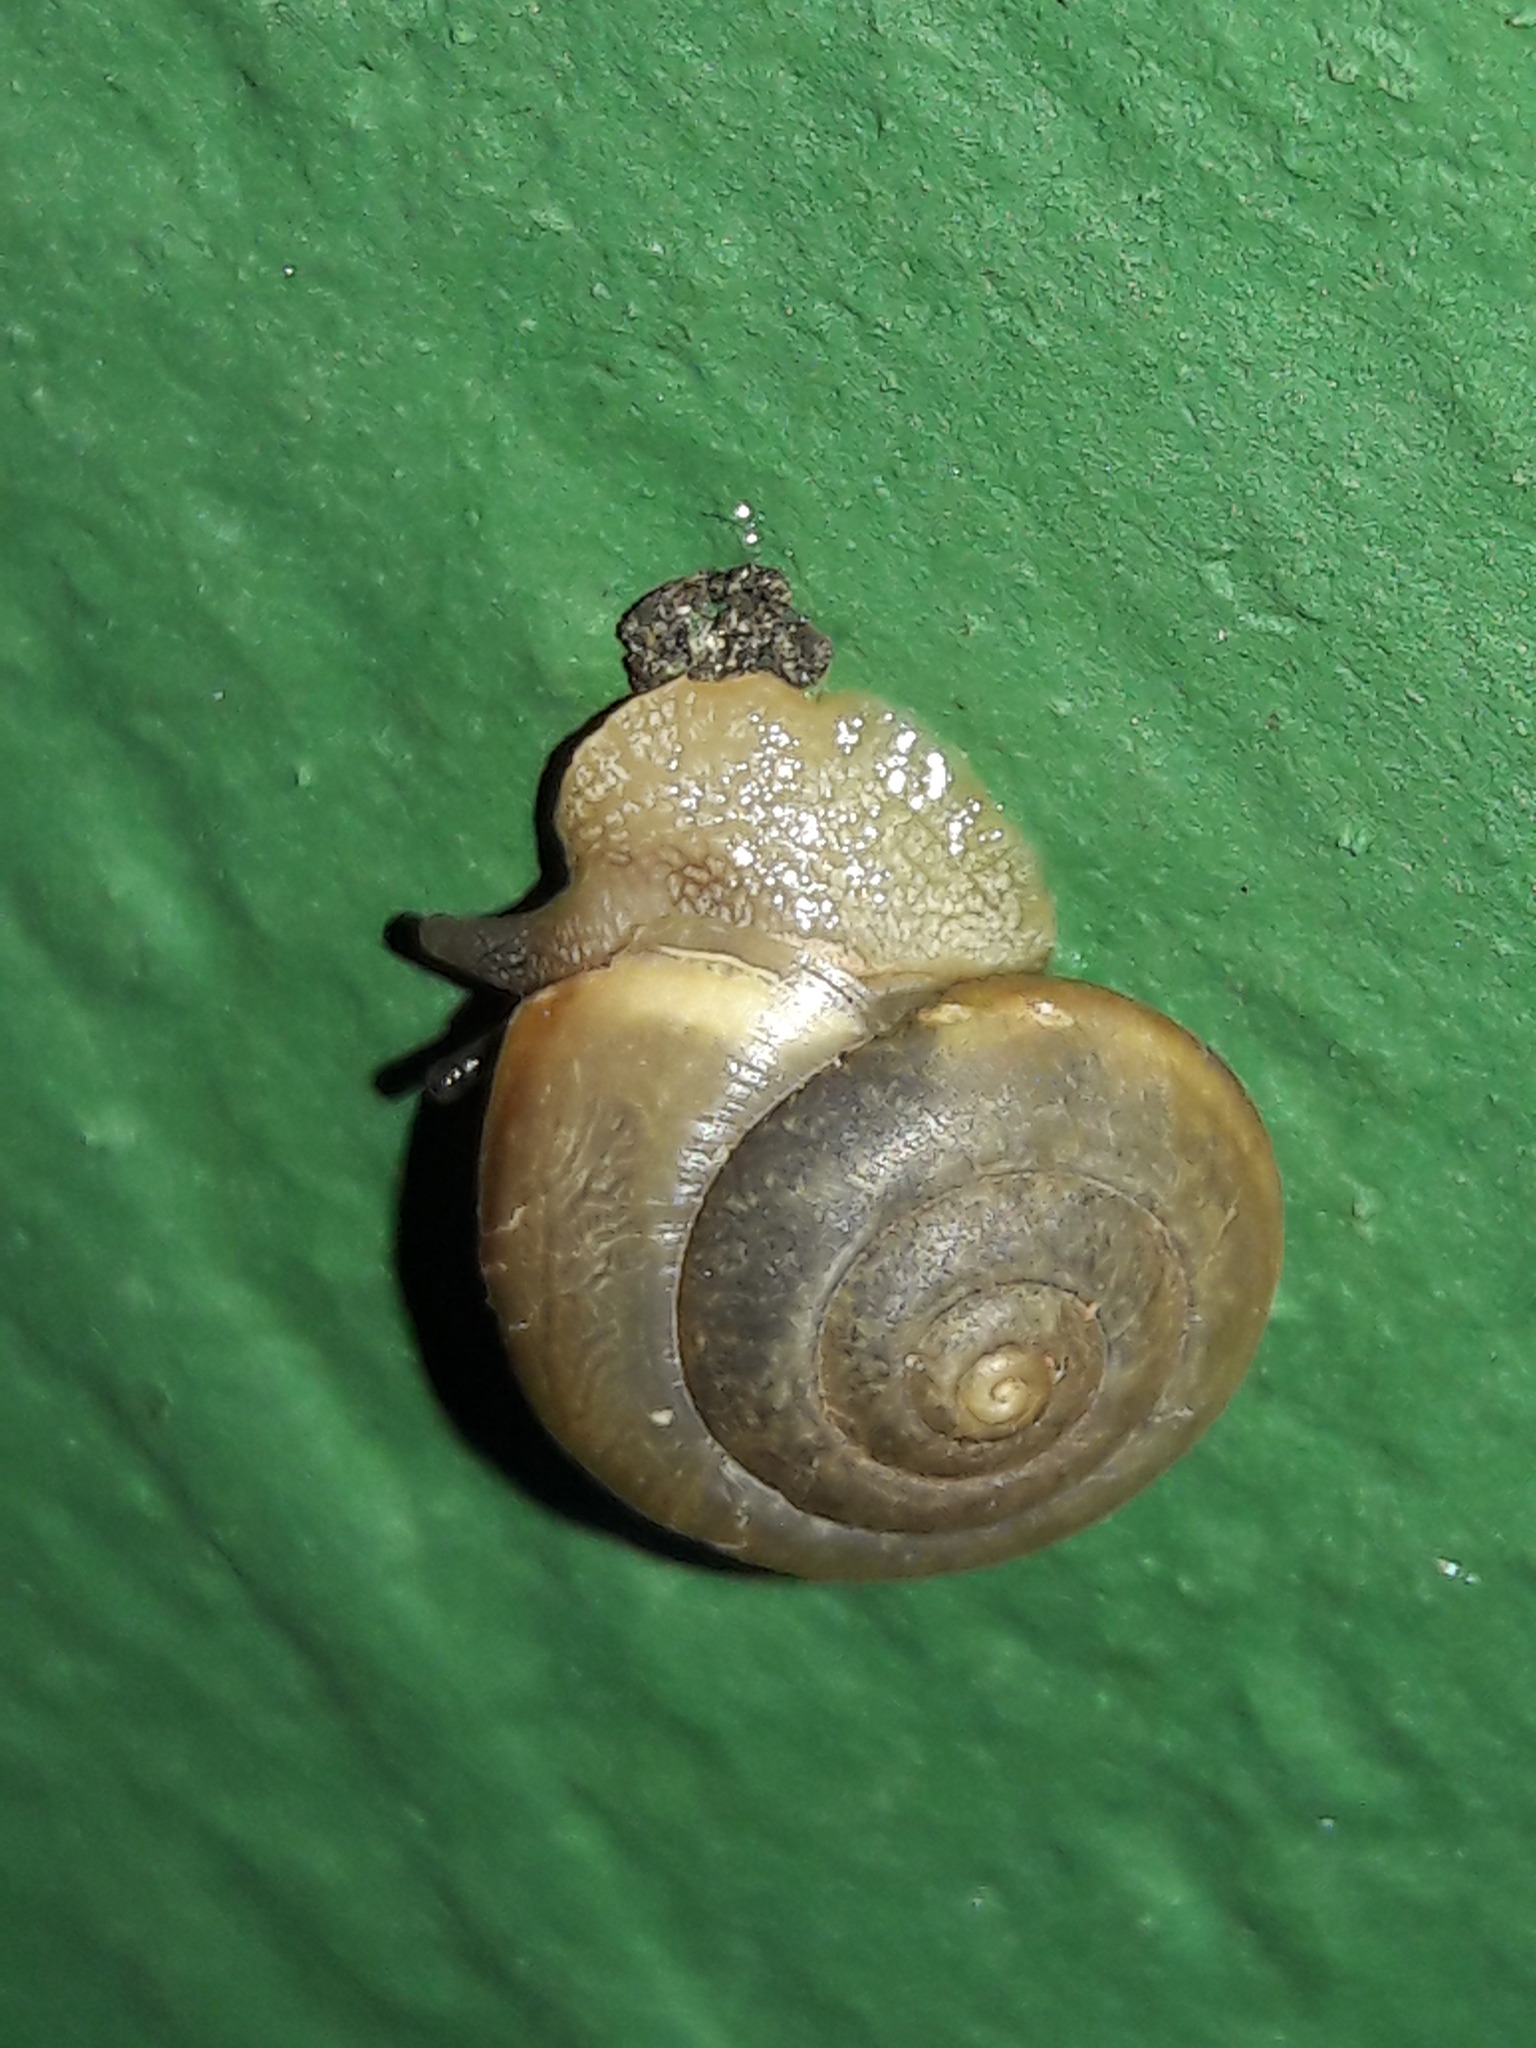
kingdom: Animalia
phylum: Mollusca
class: Gastropoda
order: Stylommatophora
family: Camaenidae
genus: Bradybaena
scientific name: Bradybaena similaris
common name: Asian trampsnail
